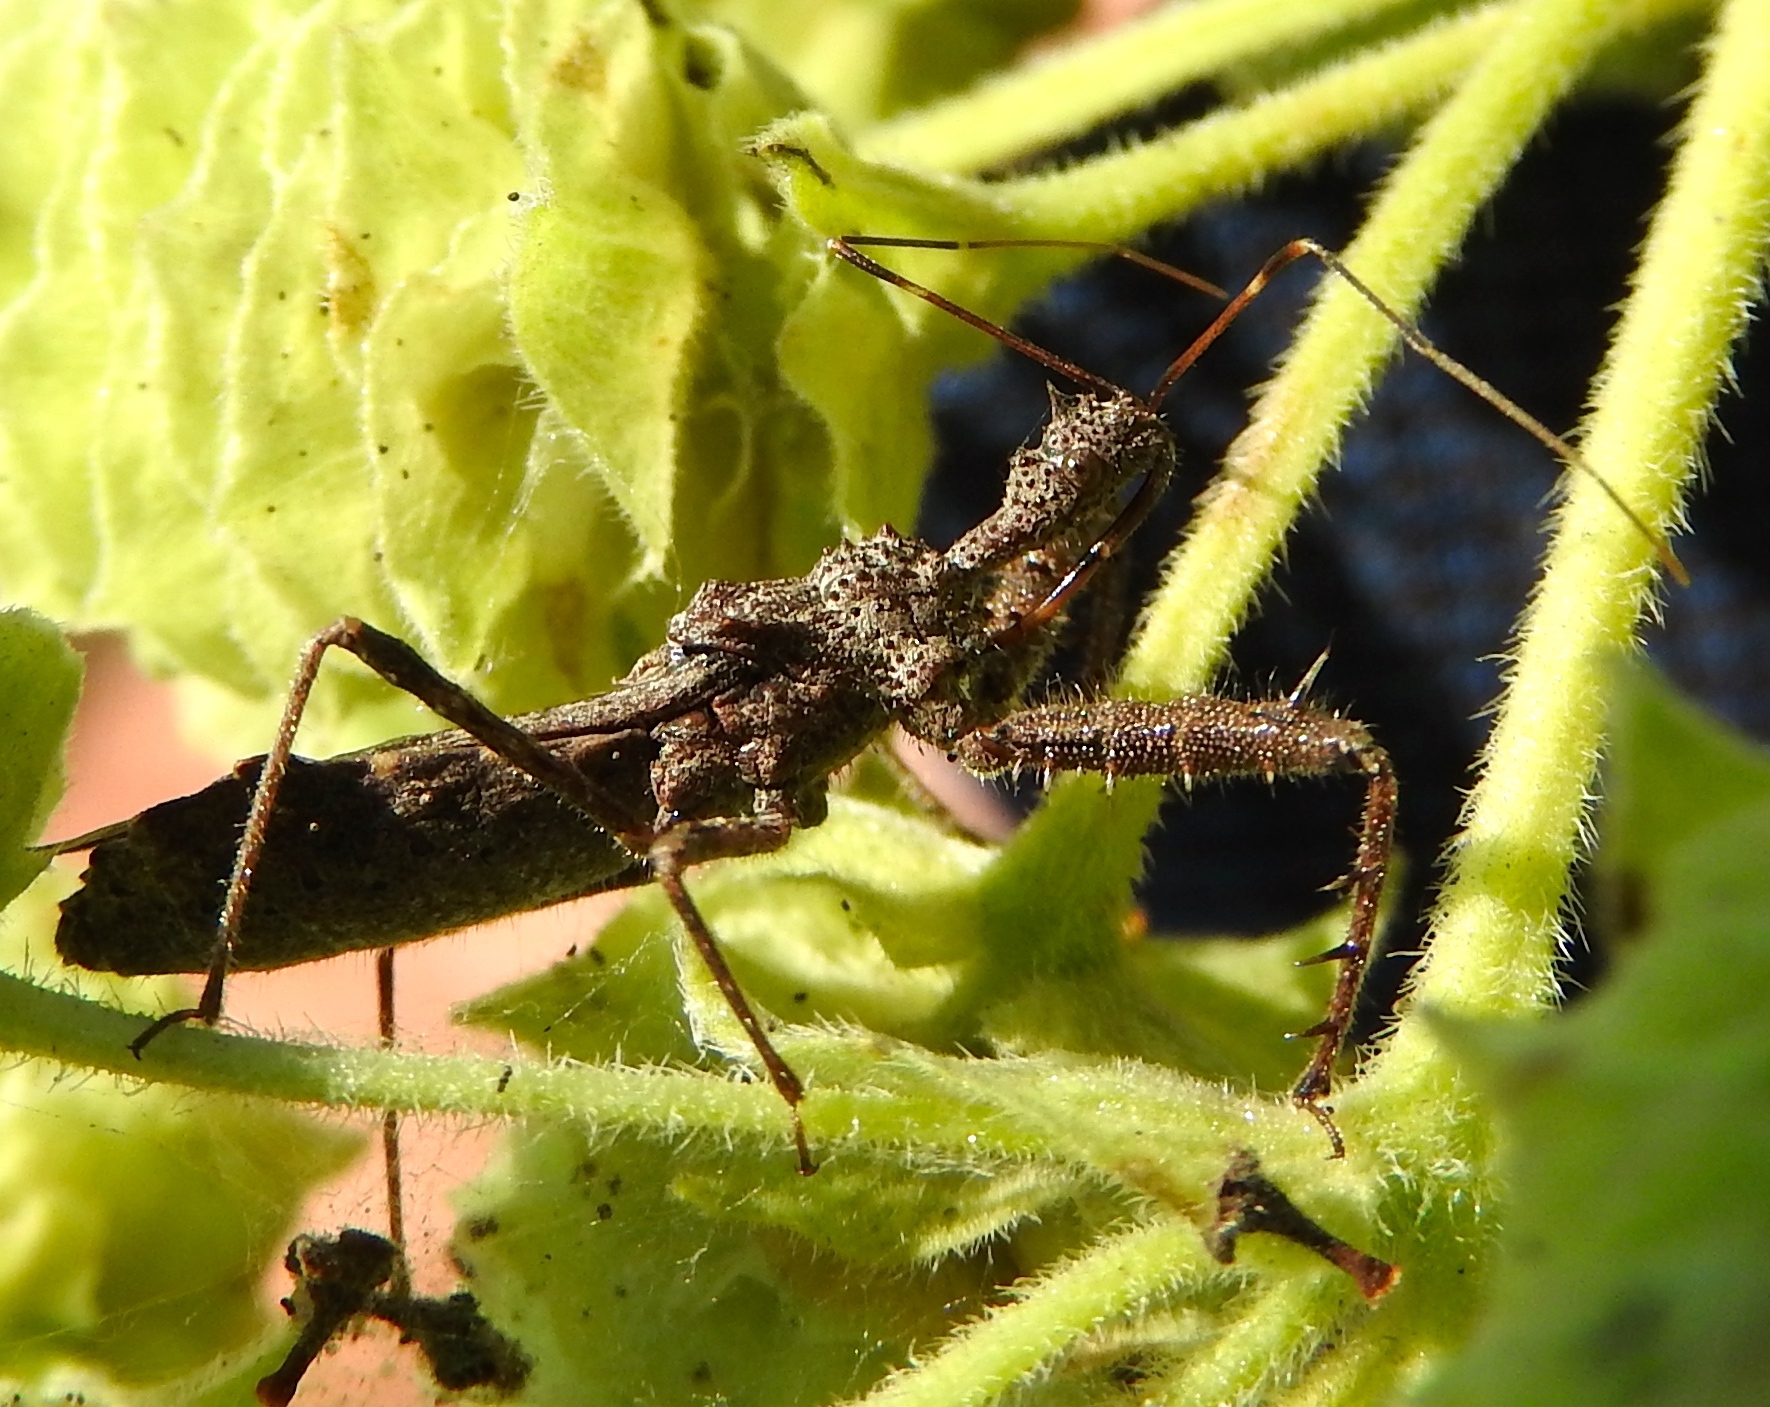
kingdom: Animalia
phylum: Arthropoda
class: Insecta
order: Hemiptera
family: Reduviidae
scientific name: Reduviidae
